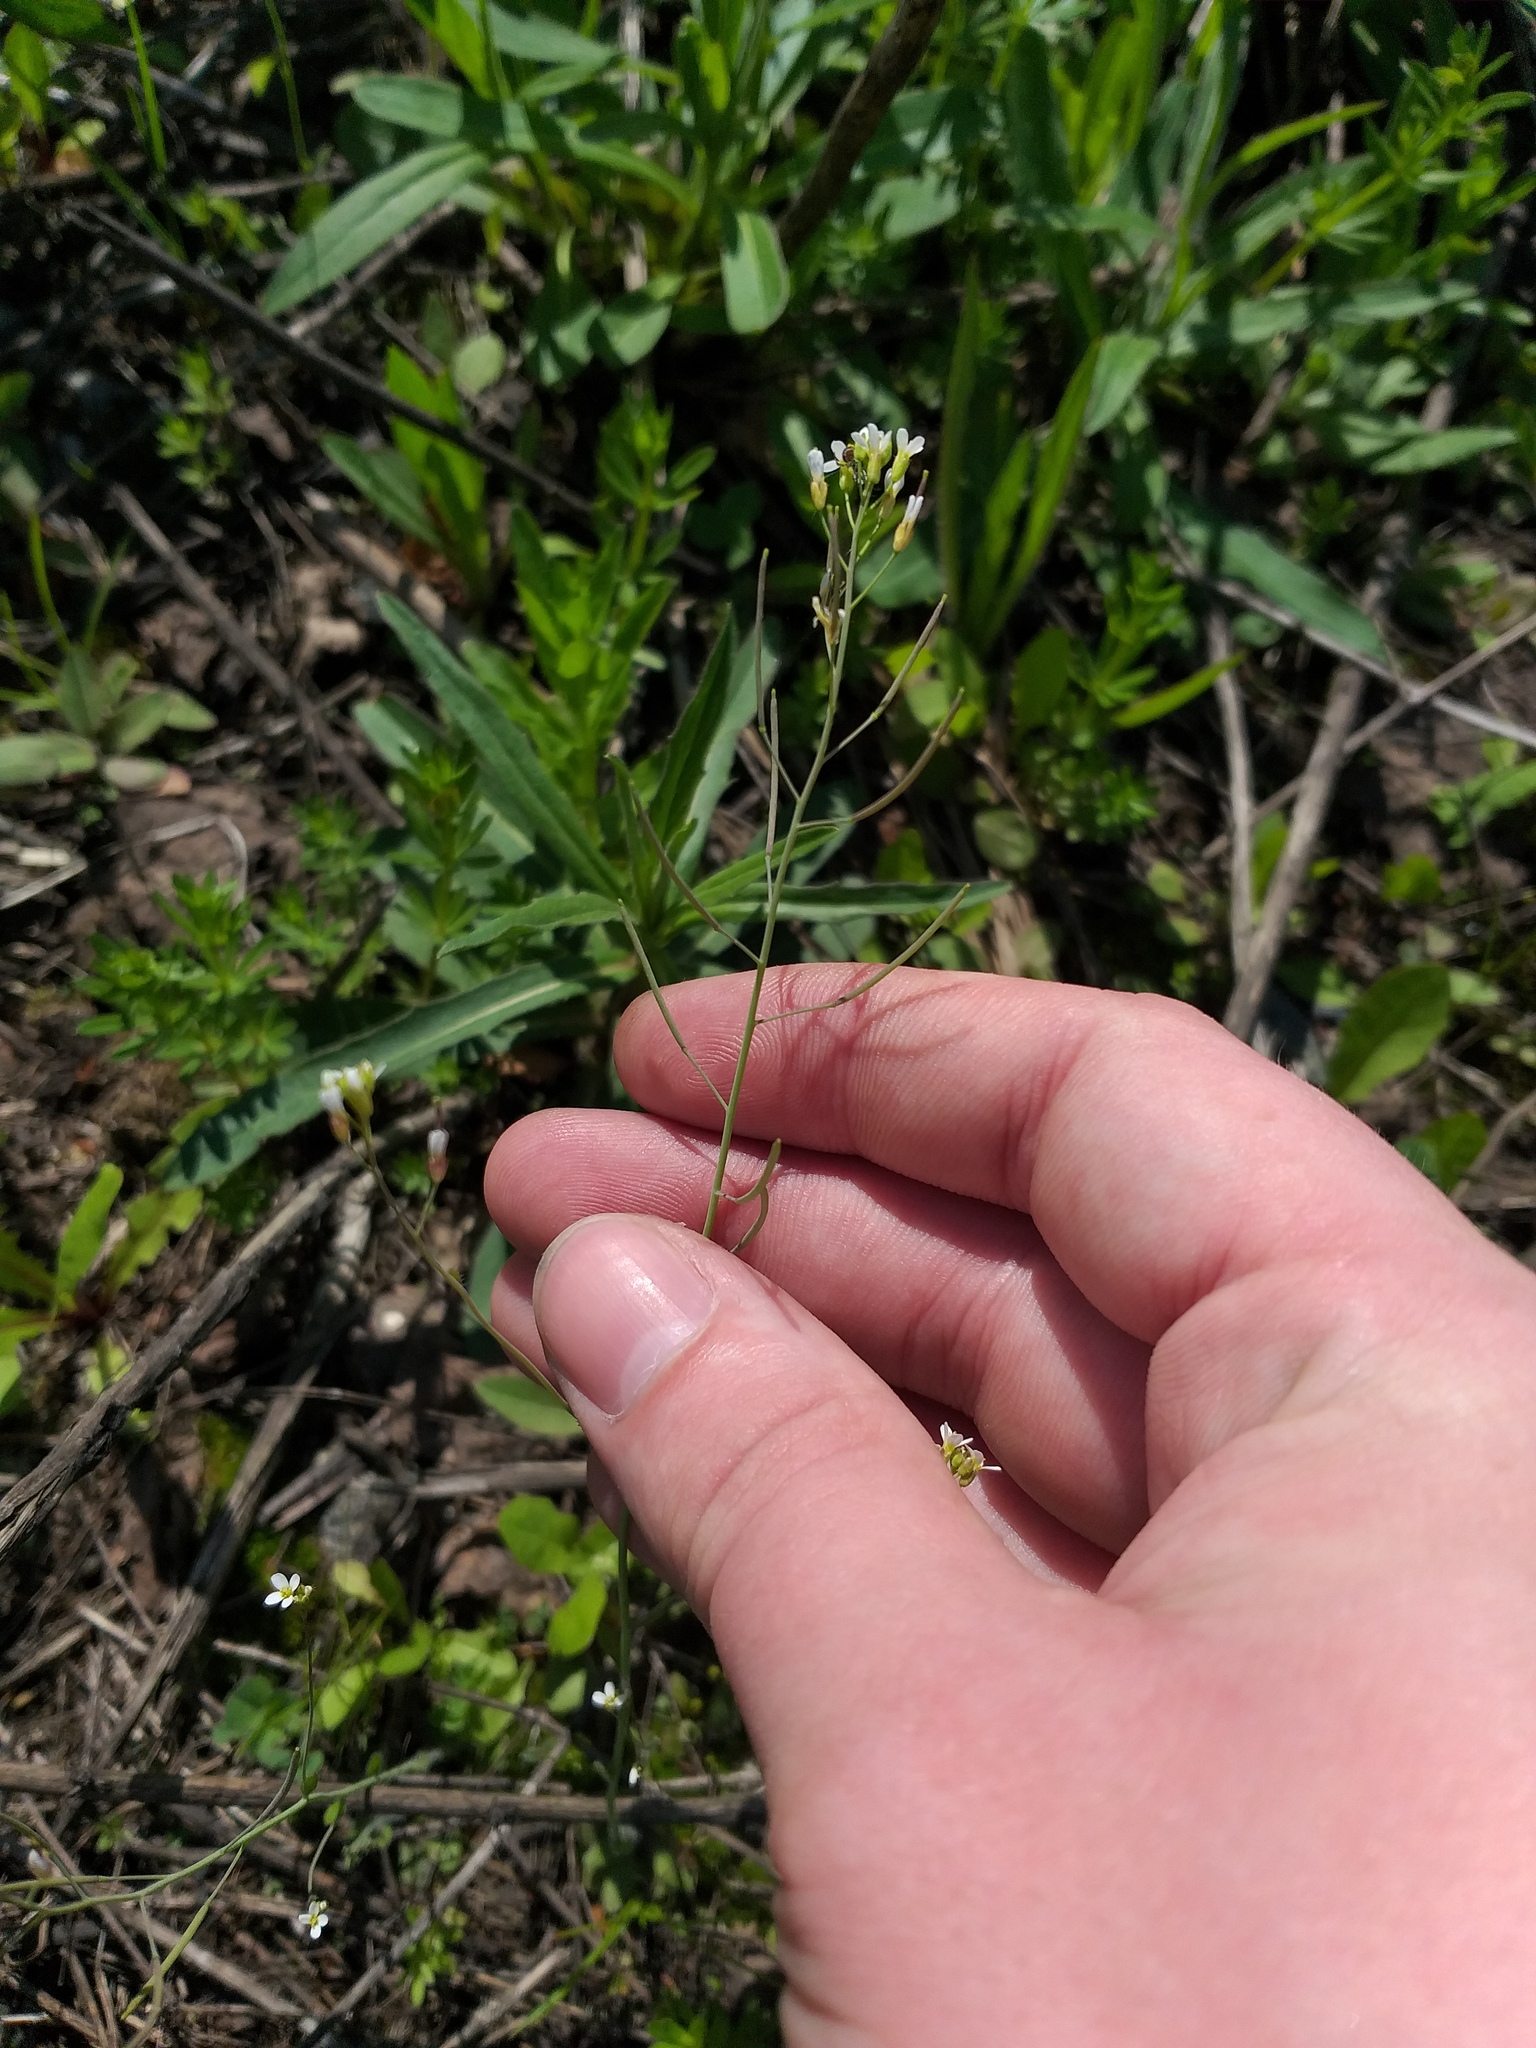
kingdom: Plantae
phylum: Tracheophyta
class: Magnoliopsida
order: Brassicales
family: Brassicaceae
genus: Arabidopsis
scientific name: Arabidopsis thaliana
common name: Thale cress
